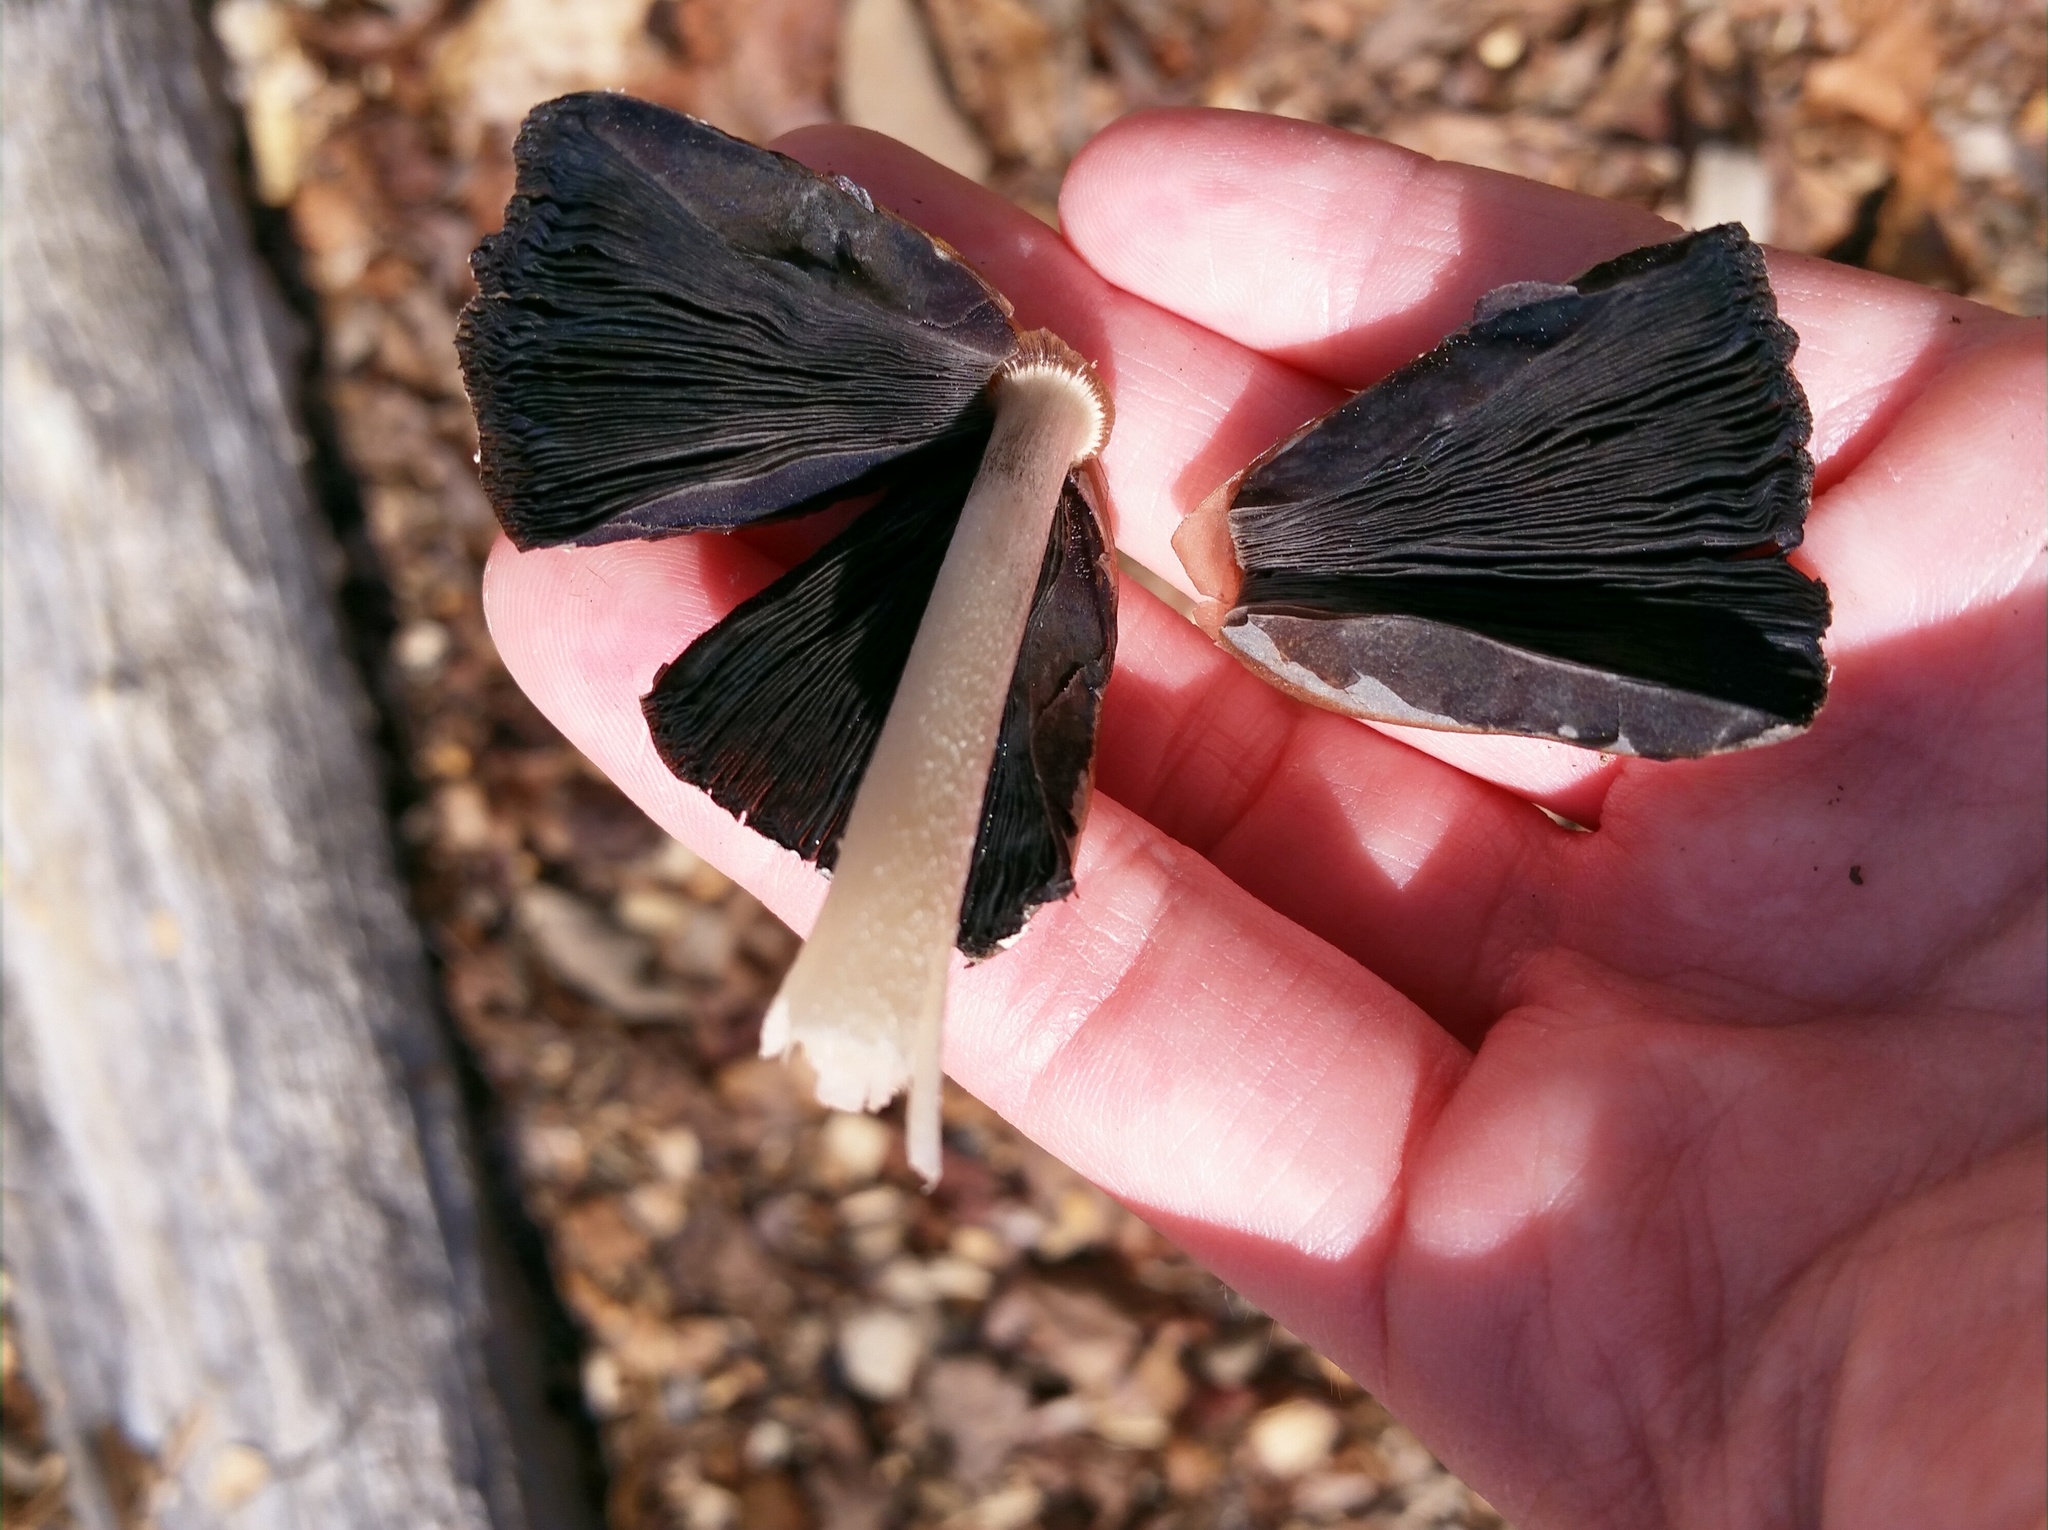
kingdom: Fungi
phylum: Basidiomycota
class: Agaricomycetes
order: Agaricales
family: Psathyrellaceae
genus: Coprinopsis
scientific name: Coprinopsis picacea
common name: Magpie inkcap
